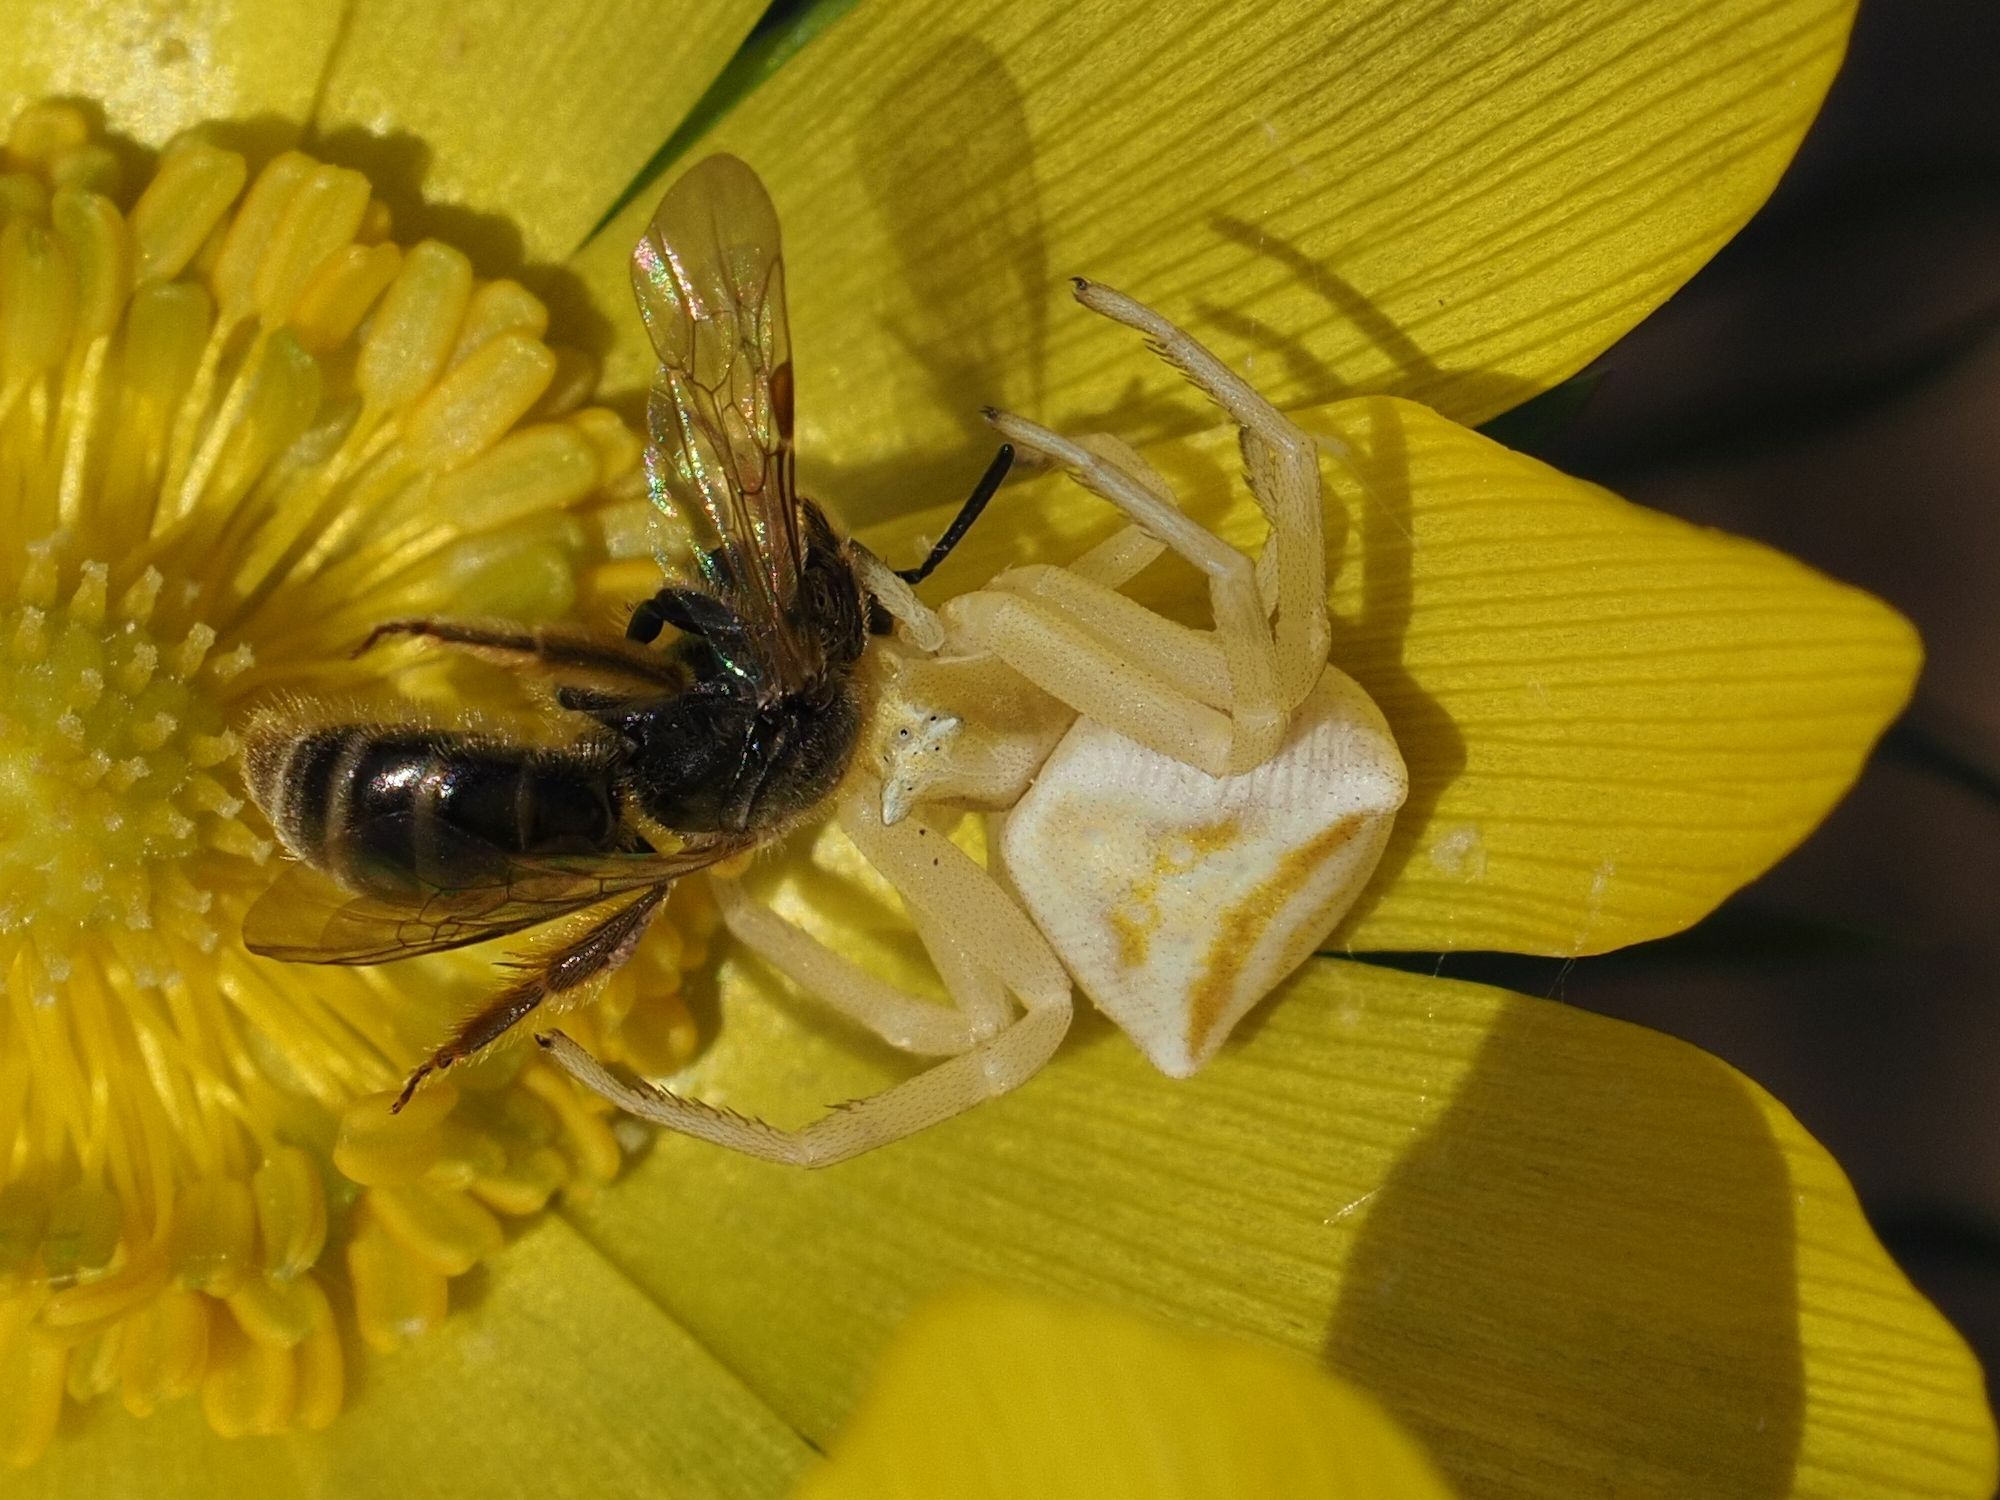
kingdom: Animalia
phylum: Arthropoda
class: Arachnida
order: Araneae
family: Thomisidae
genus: Thomisus
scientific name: Thomisus onustus
